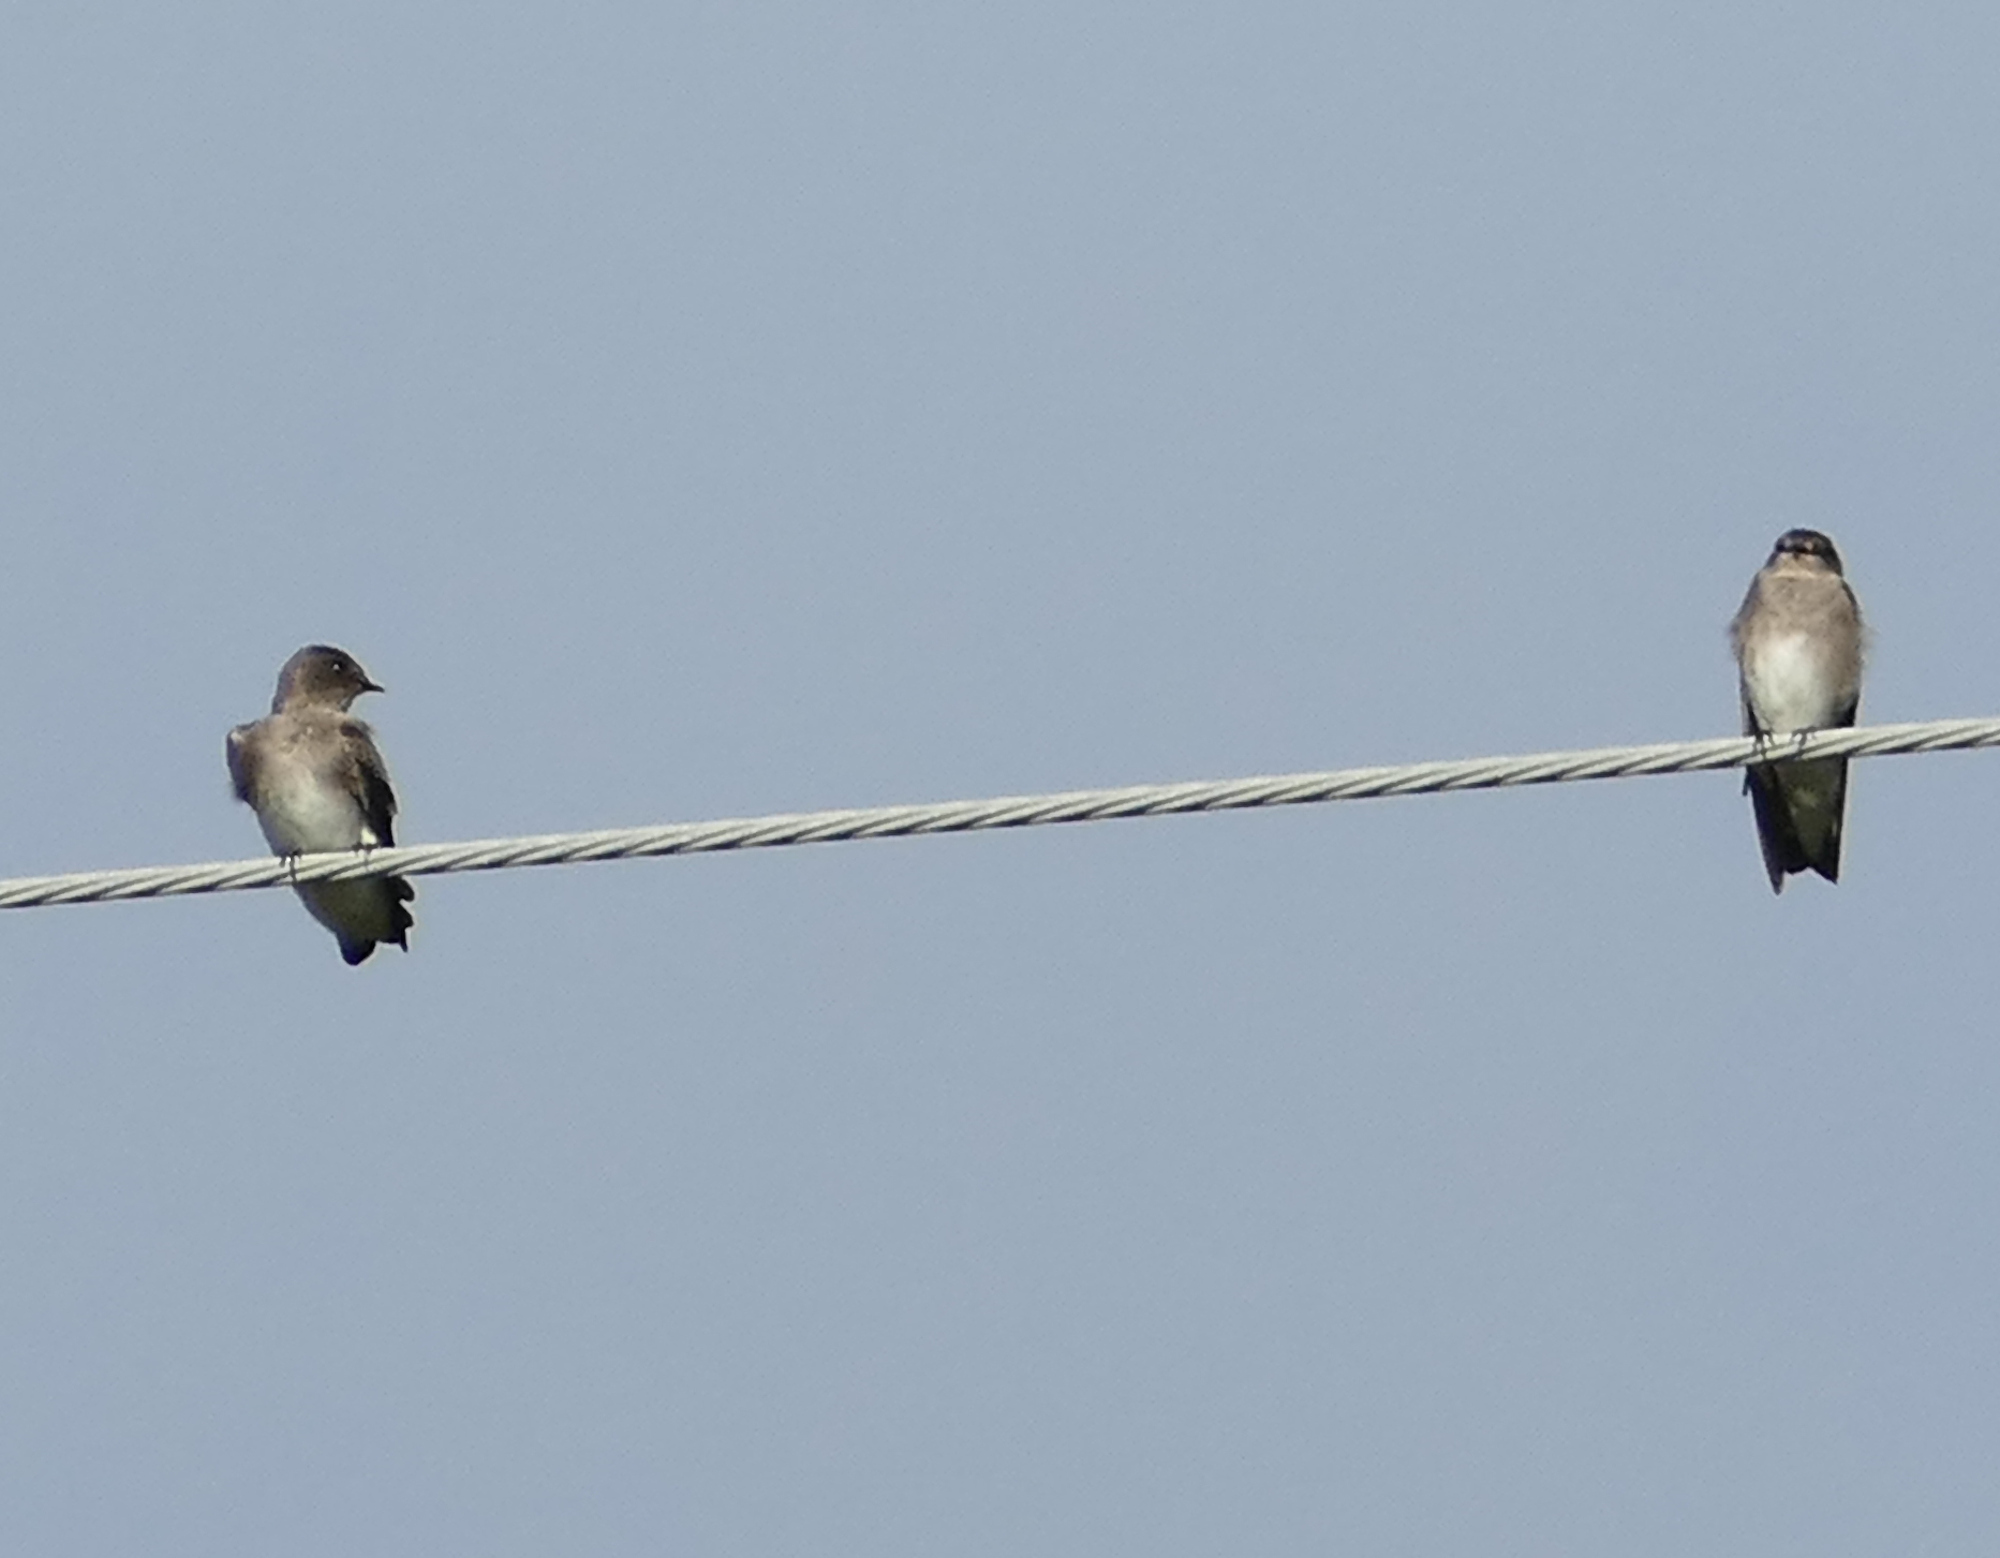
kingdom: Animalia
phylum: Chordata
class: Aves
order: Passeriformes
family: Hirundinidae
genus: Stelgidopteryx
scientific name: Stelgidopteryx serripennis
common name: Northern rough-winged swallow
